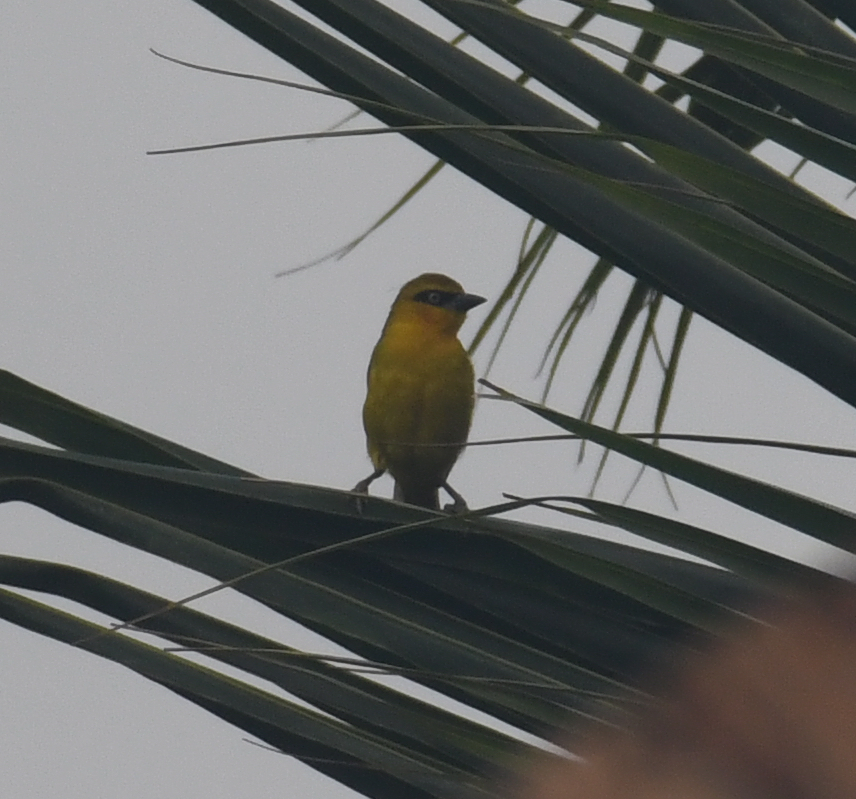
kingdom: Animalia
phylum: Chordata
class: Aves
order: Passeriformes
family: Ploceidae
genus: Ploceus
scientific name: Ploceus brachypterus
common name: Olive-naped weaver
